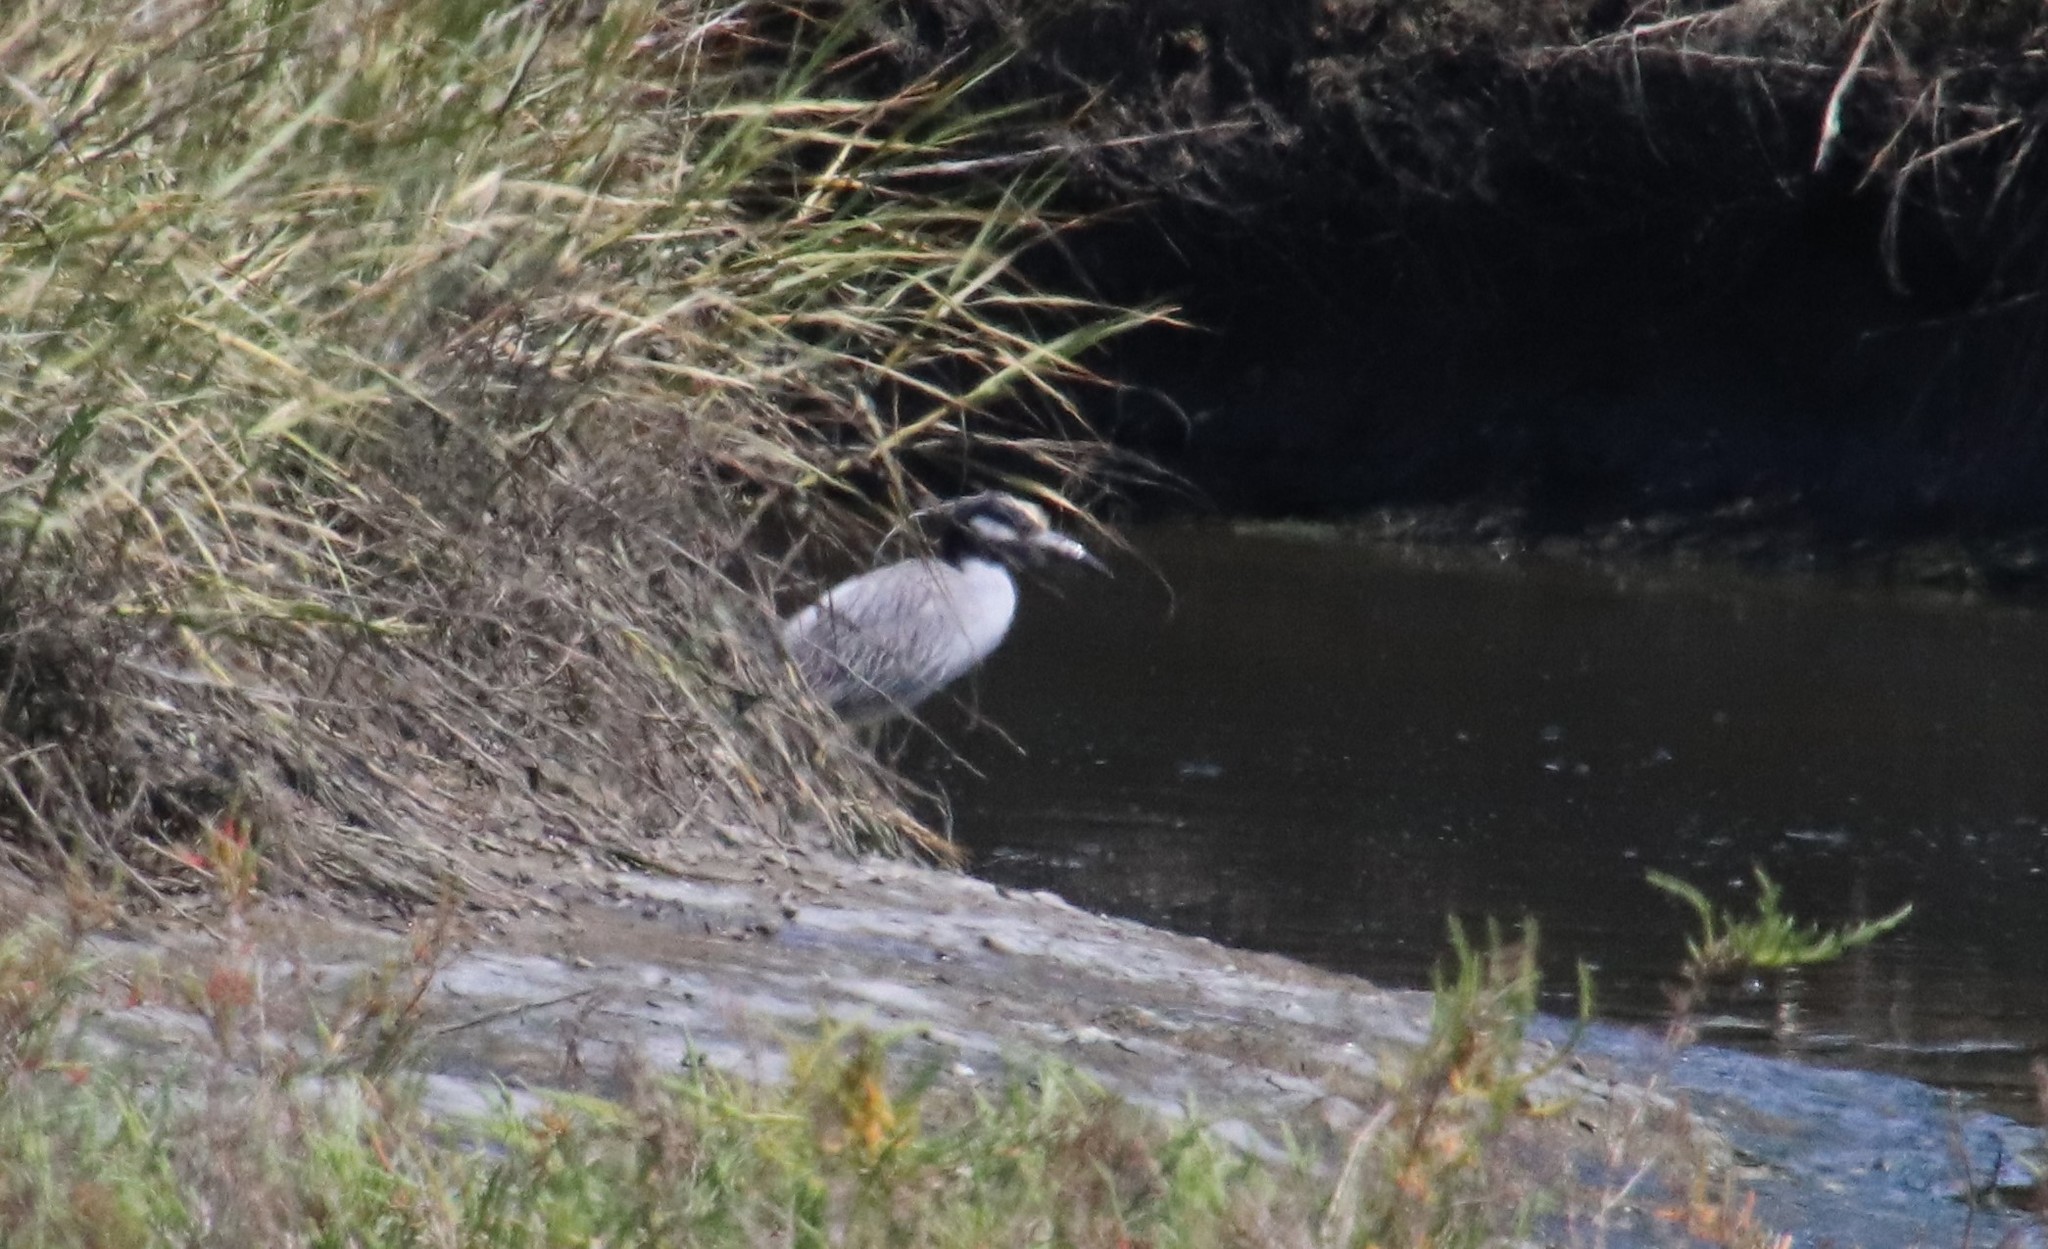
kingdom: Animalia
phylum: Chordata
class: Aves
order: Pelecaniformes
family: Ardeidae
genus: Nyctanassa
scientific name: Nyctanassa violacea
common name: Yellow-crowned night heron
